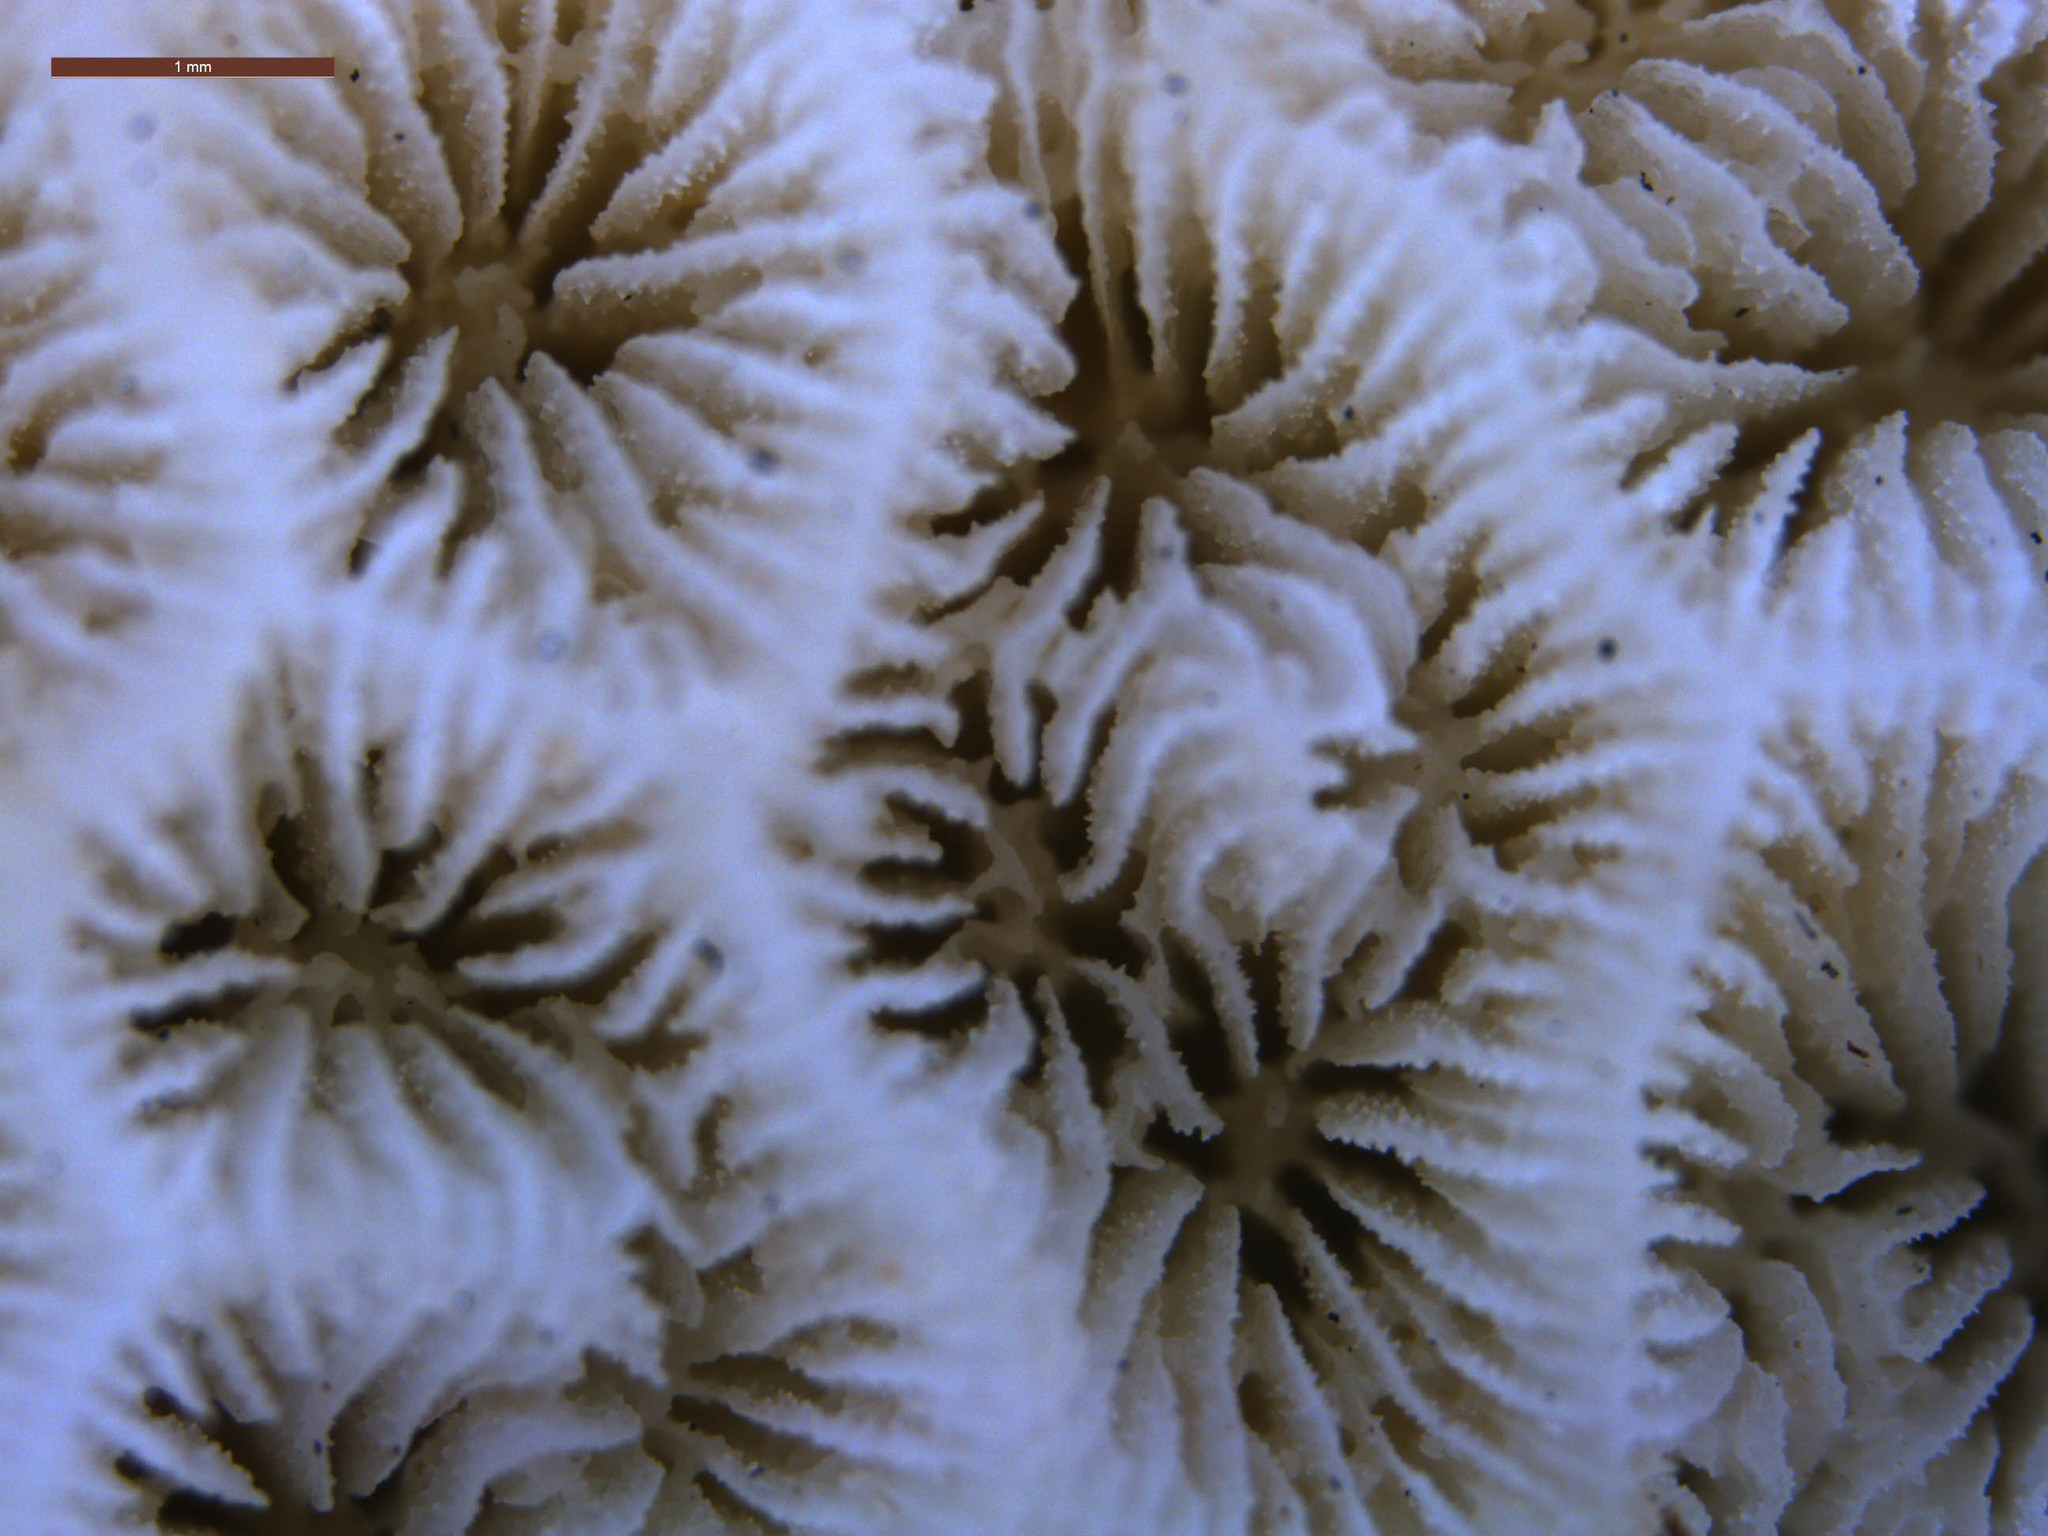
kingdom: Animalia
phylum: Cnidaria
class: Anthozoa
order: Scleractinia
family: Agariciidae
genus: Pavona
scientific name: Pavona venosa
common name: Leaf coral
